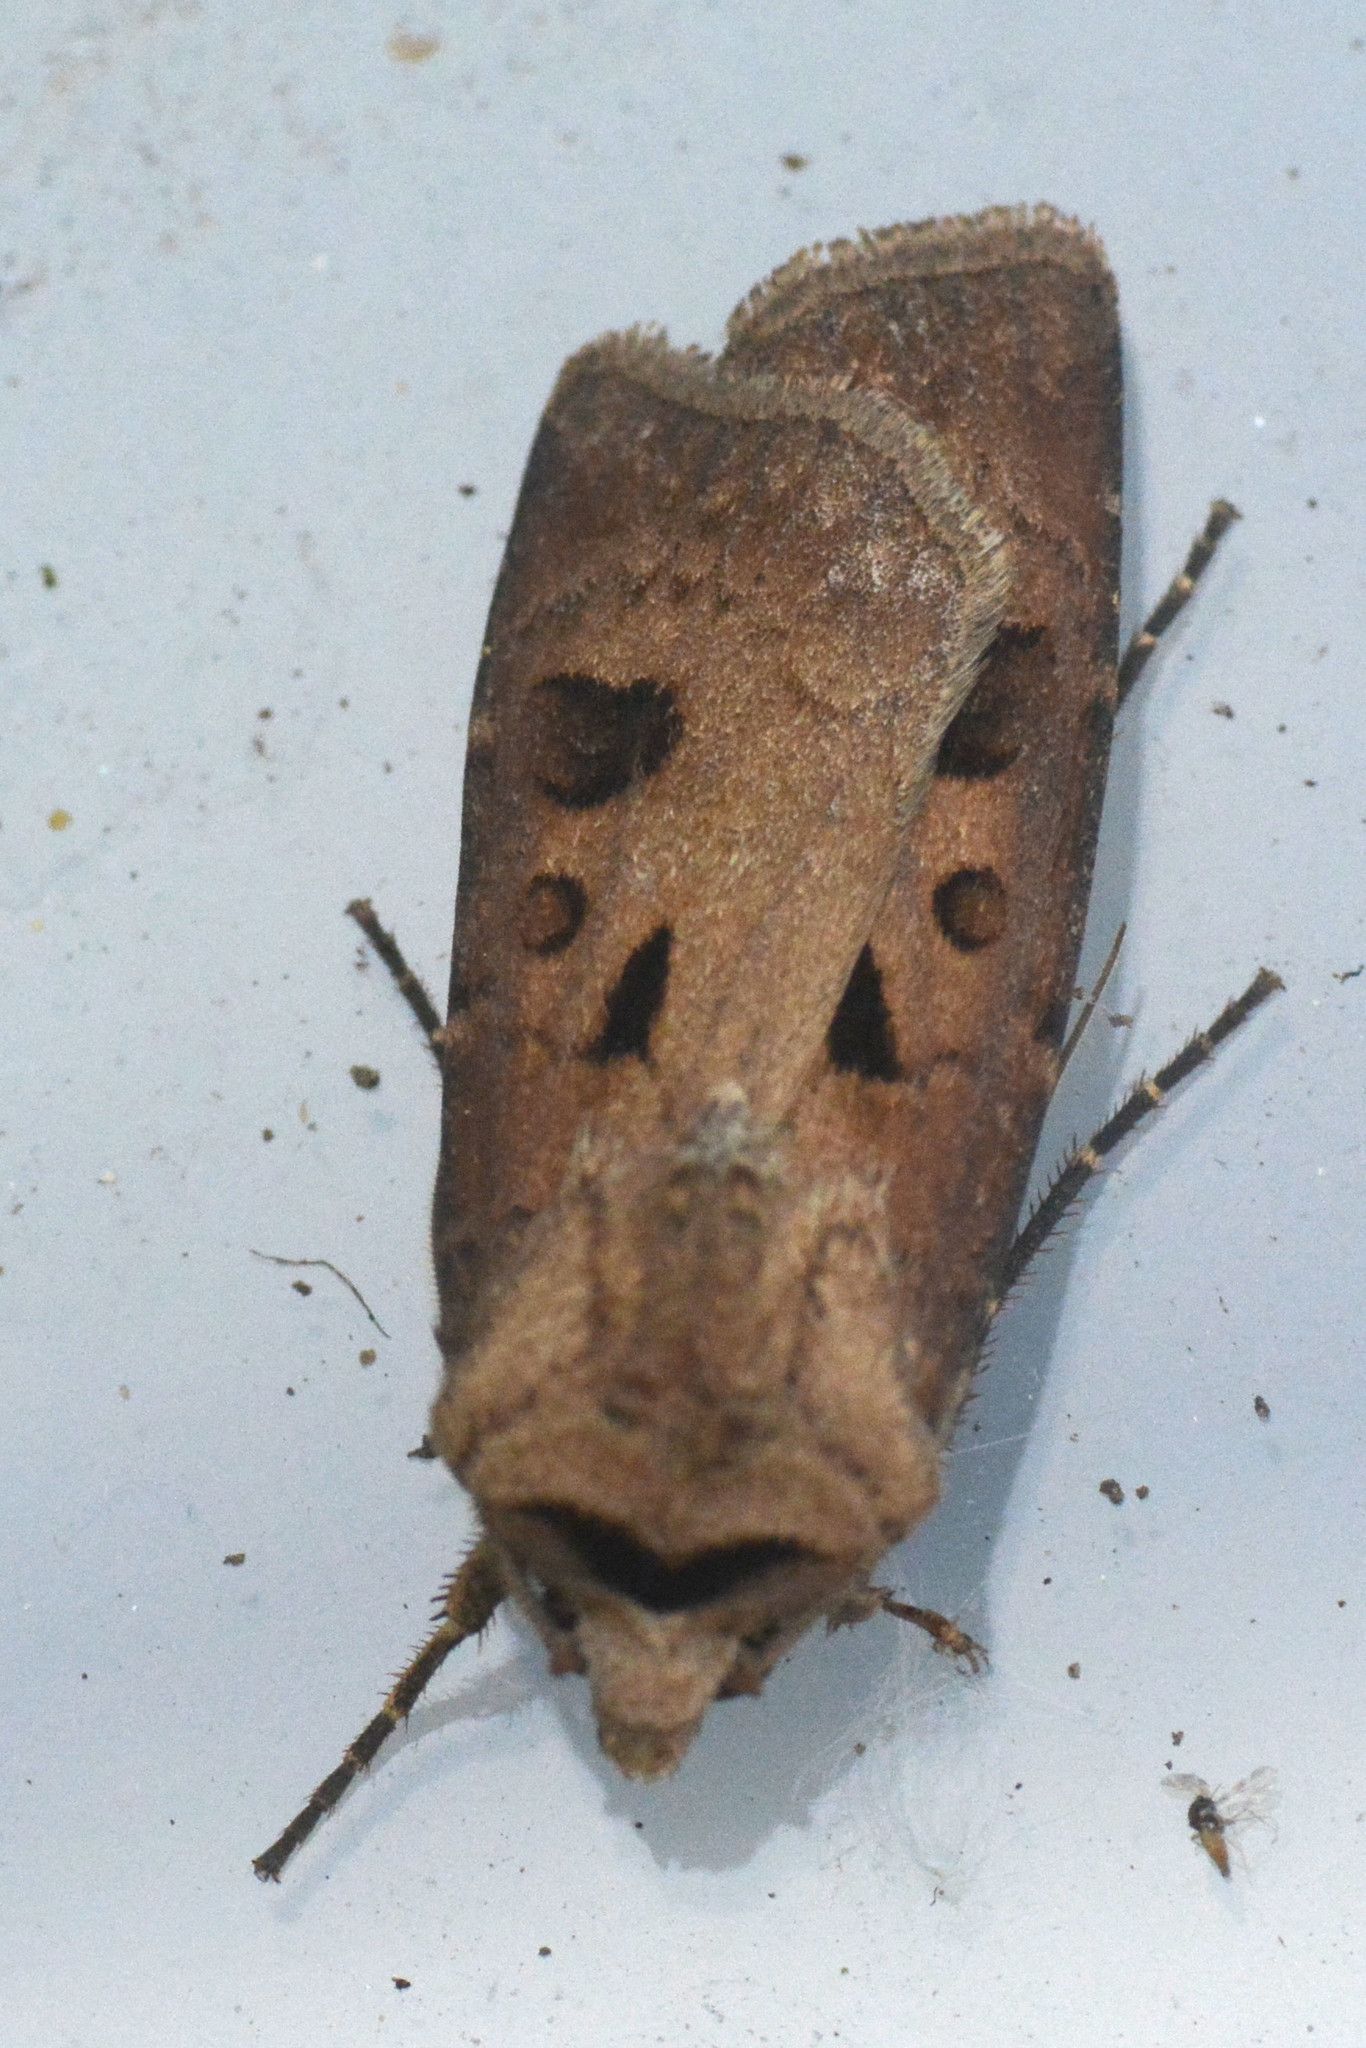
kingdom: Animalia
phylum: Arthropoda
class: Insecta
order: Lepidoptera
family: Noctuidae
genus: Agrotis
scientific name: Agrotis exclamationis
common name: Heart and dart
